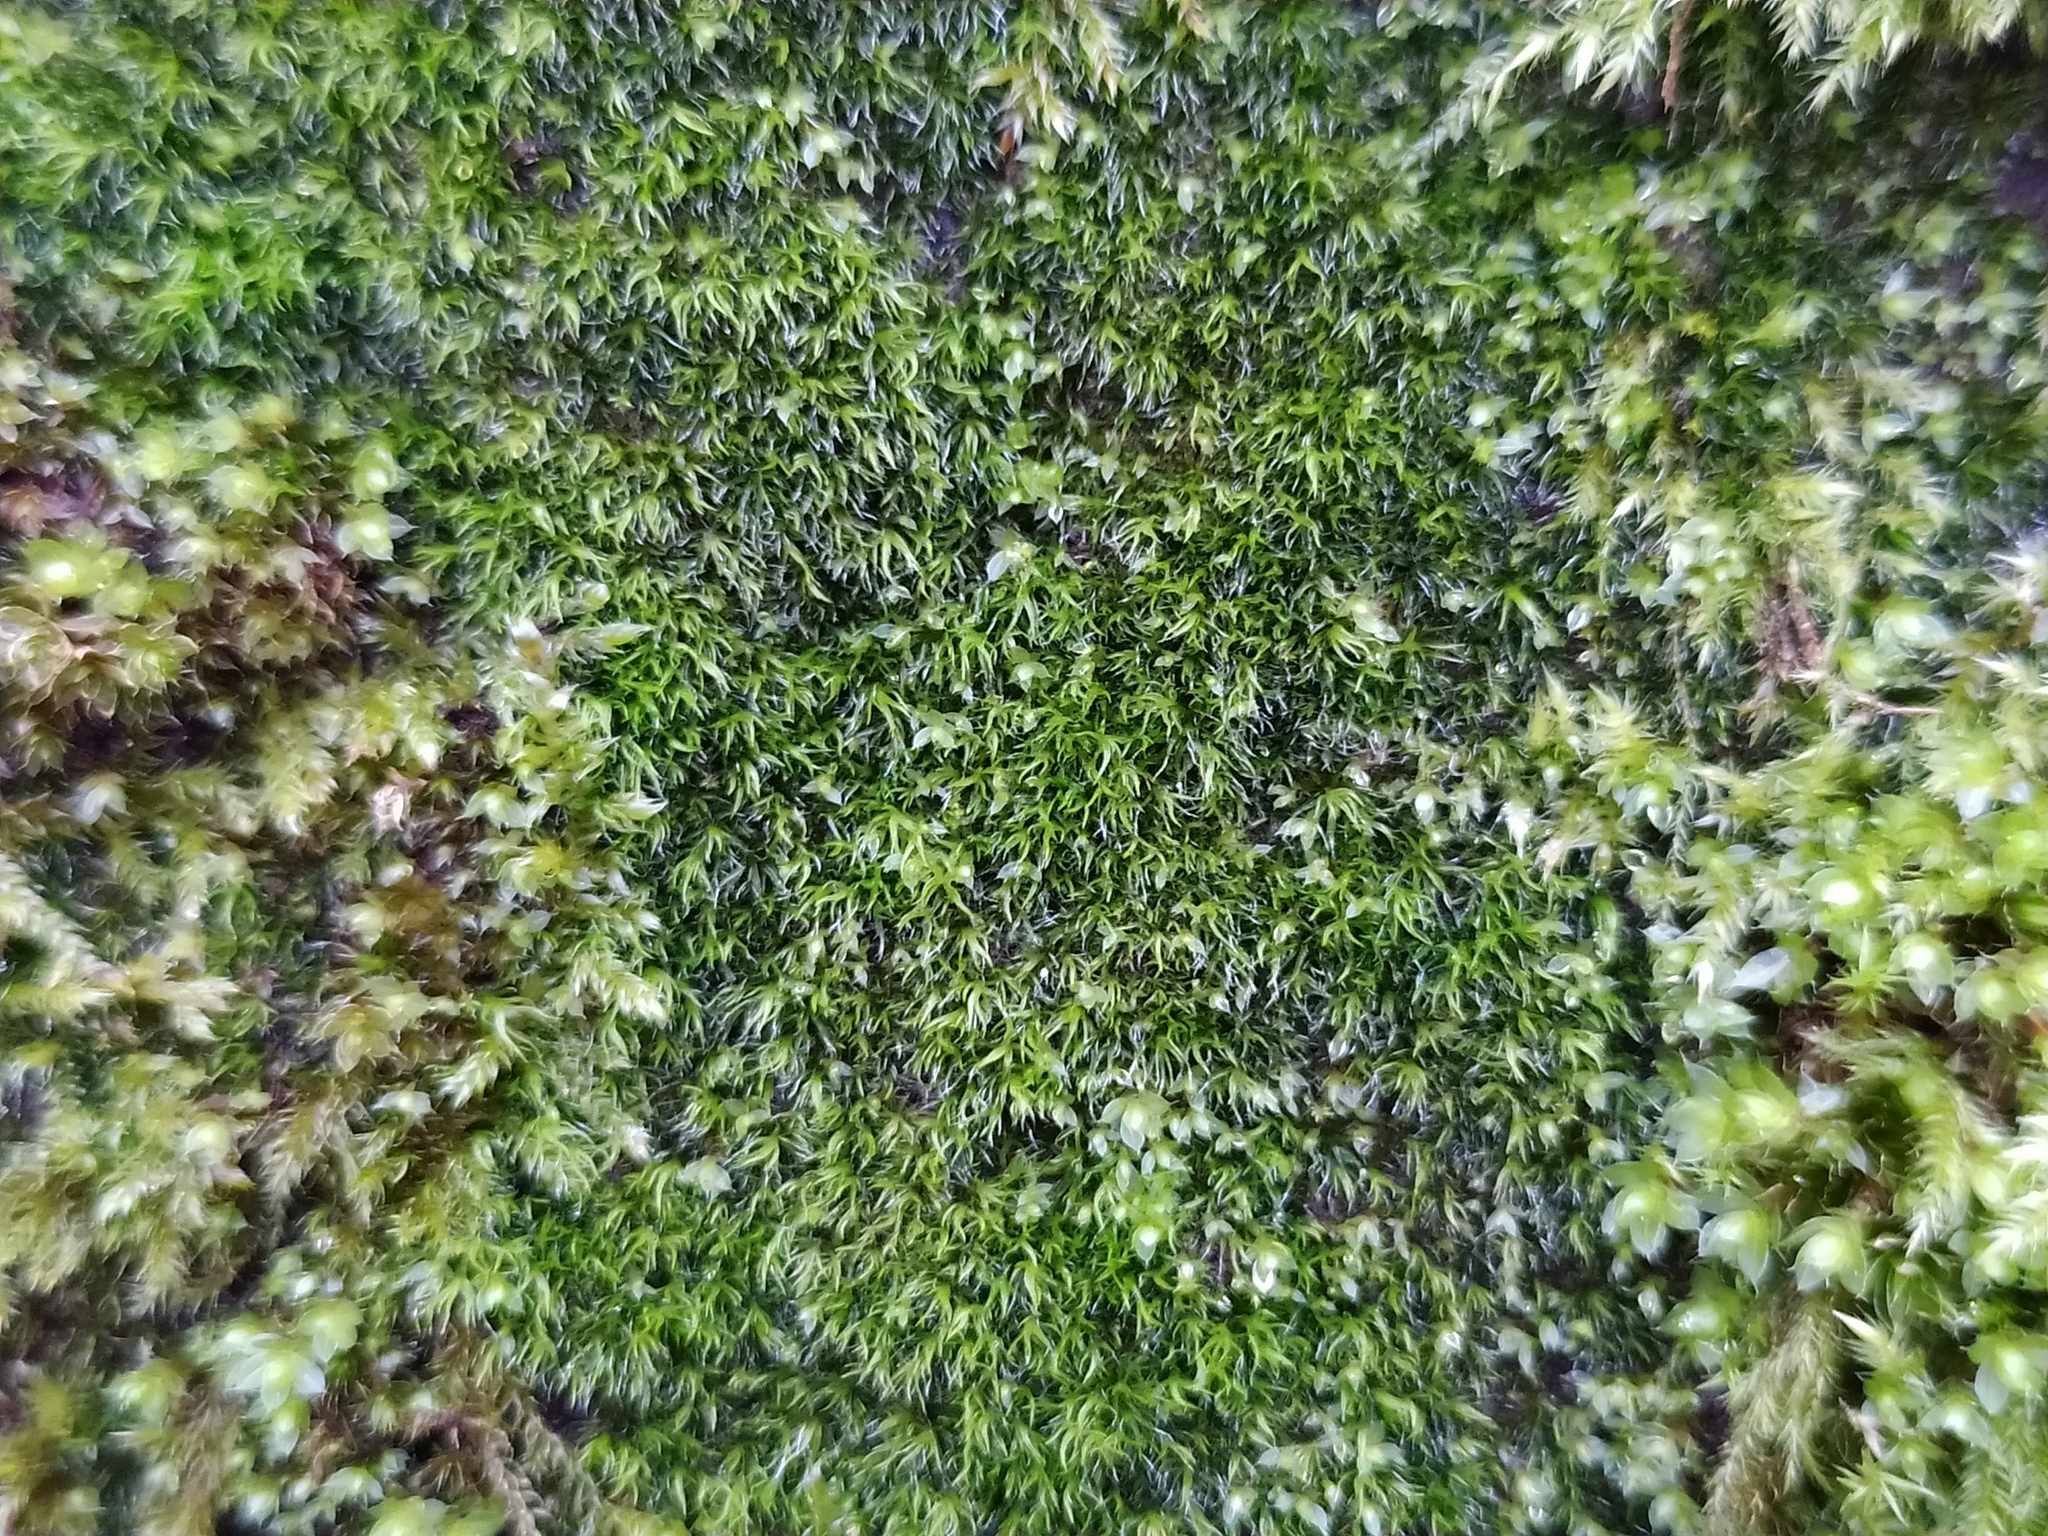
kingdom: Plantae
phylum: Bryophyta
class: Bryopsida
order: Grimmiales
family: Grimmiaceae
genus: Grimmia
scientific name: Grimmia trichophylla
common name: Hair-pointed grimmia
